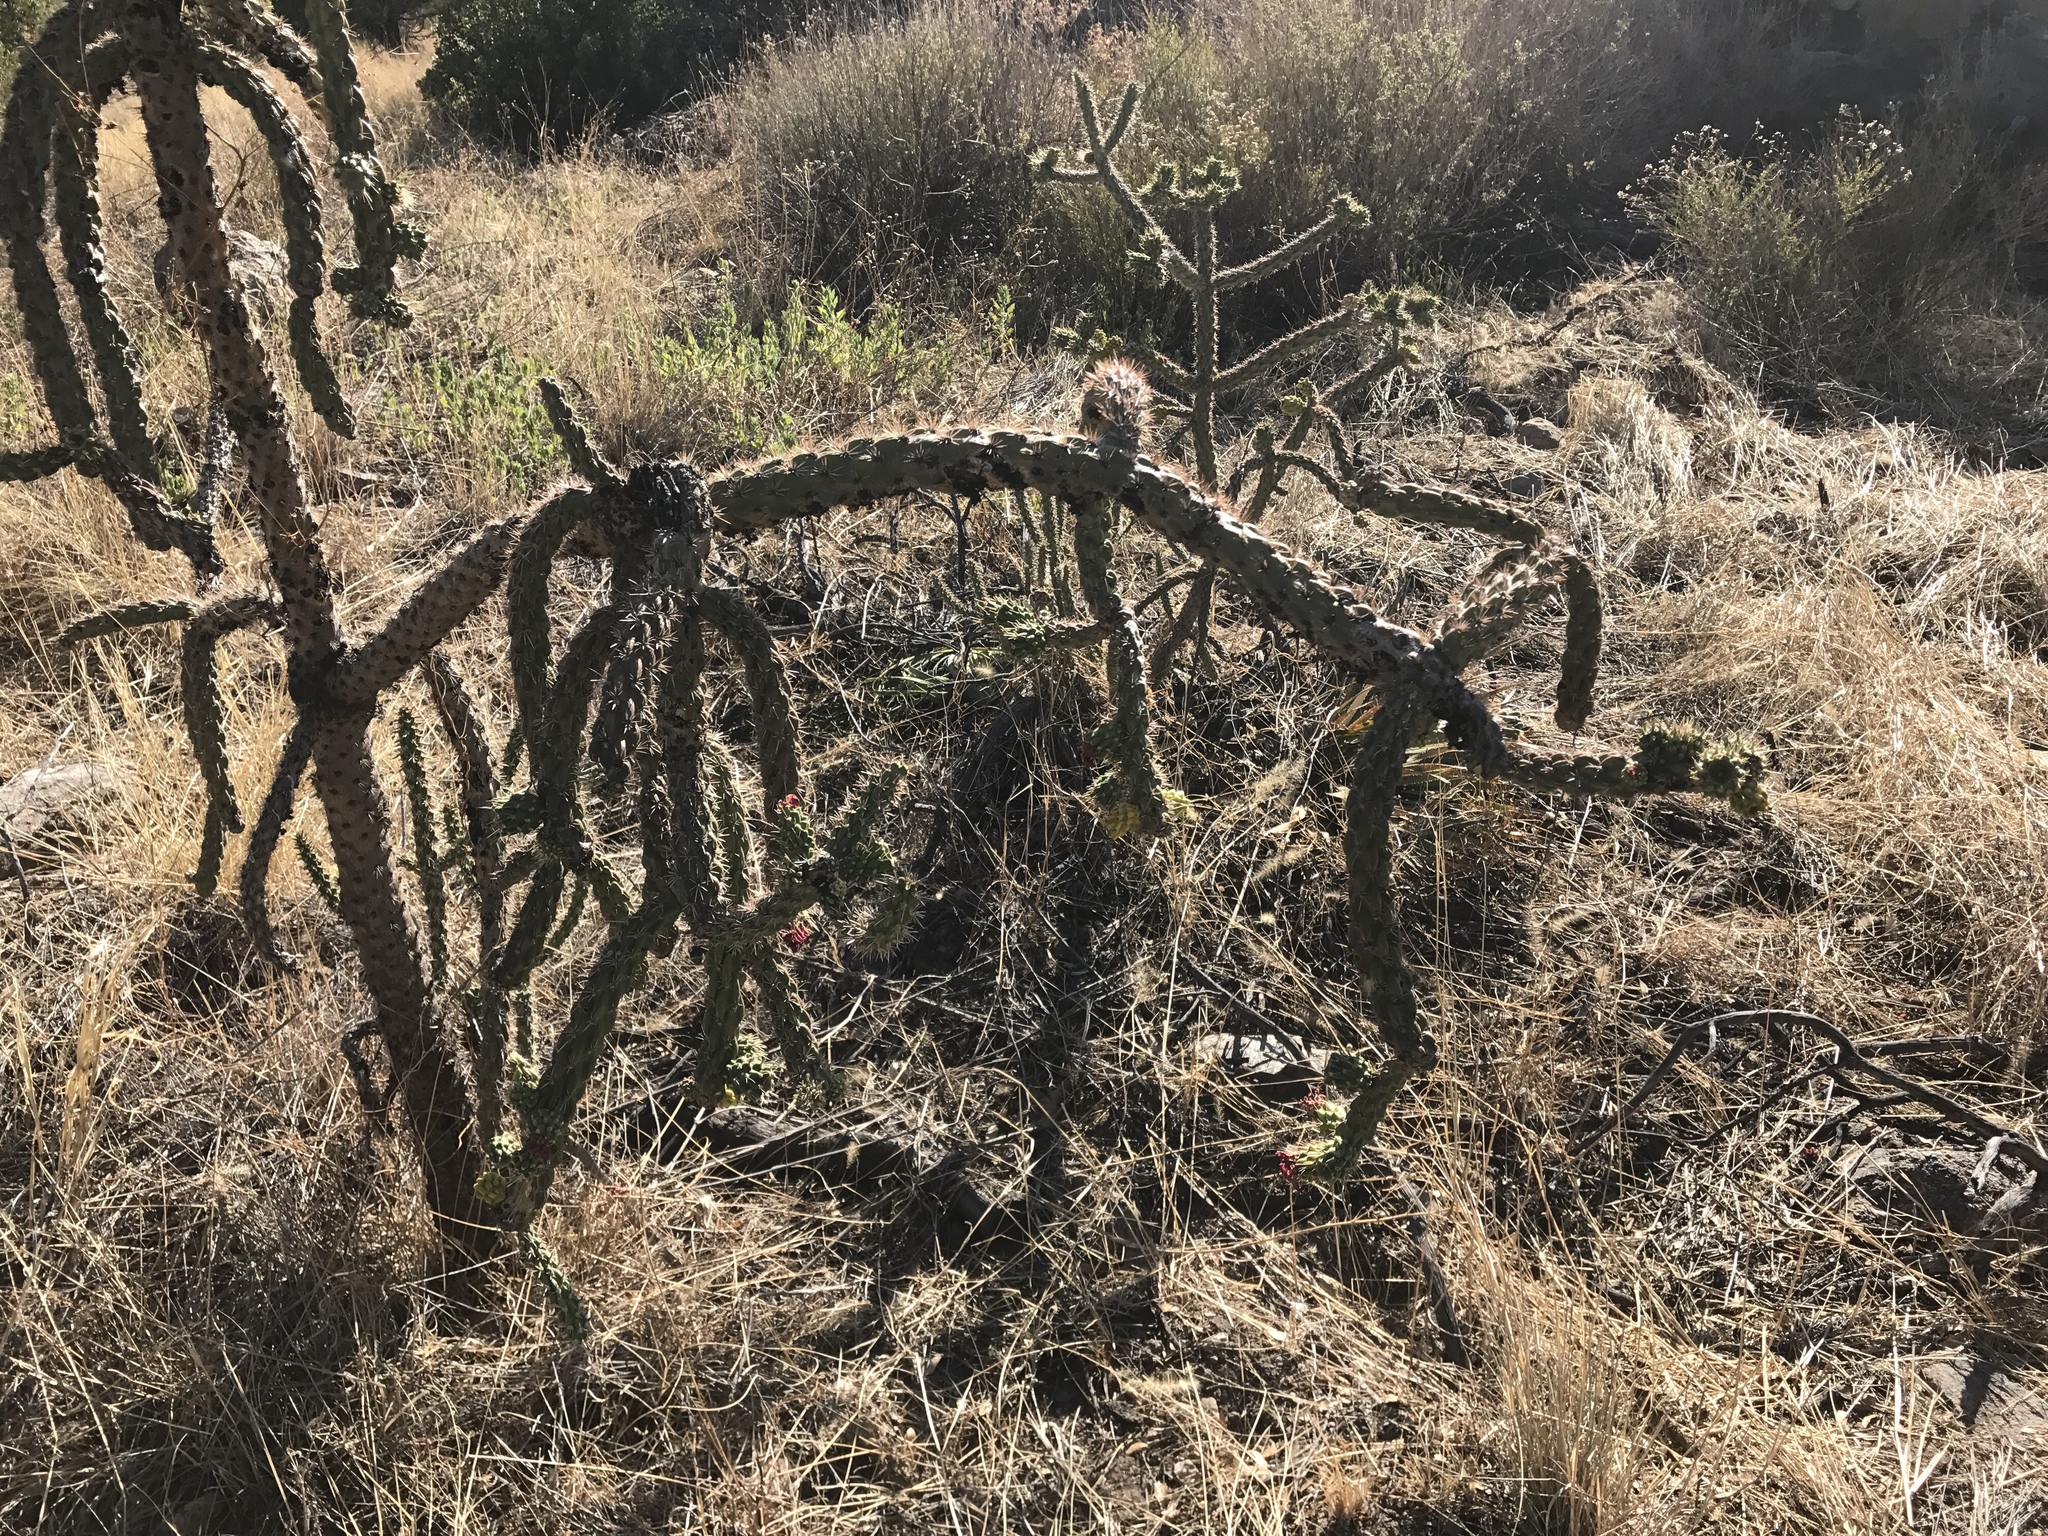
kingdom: Plantae
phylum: Tracheophyta
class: Magnoliopsida
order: Caryophyllales
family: Cactaceae
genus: Cylindropuntia
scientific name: Cylindropuntia imbricata
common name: Candelabrum cactus
